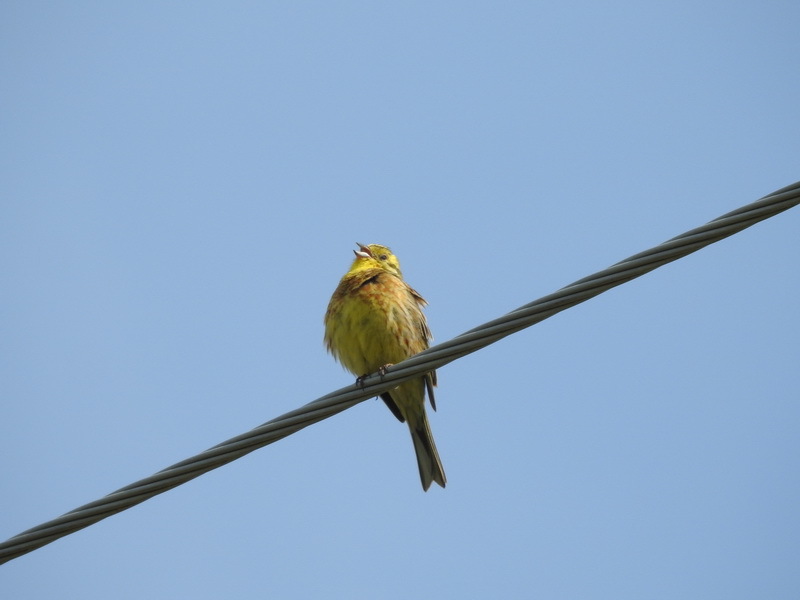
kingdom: Animalia
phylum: Chordata
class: Aves
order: Passeriformes
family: Emberizidae
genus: Emberiza
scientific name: Emberiza citrinella
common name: Yellowhammer
